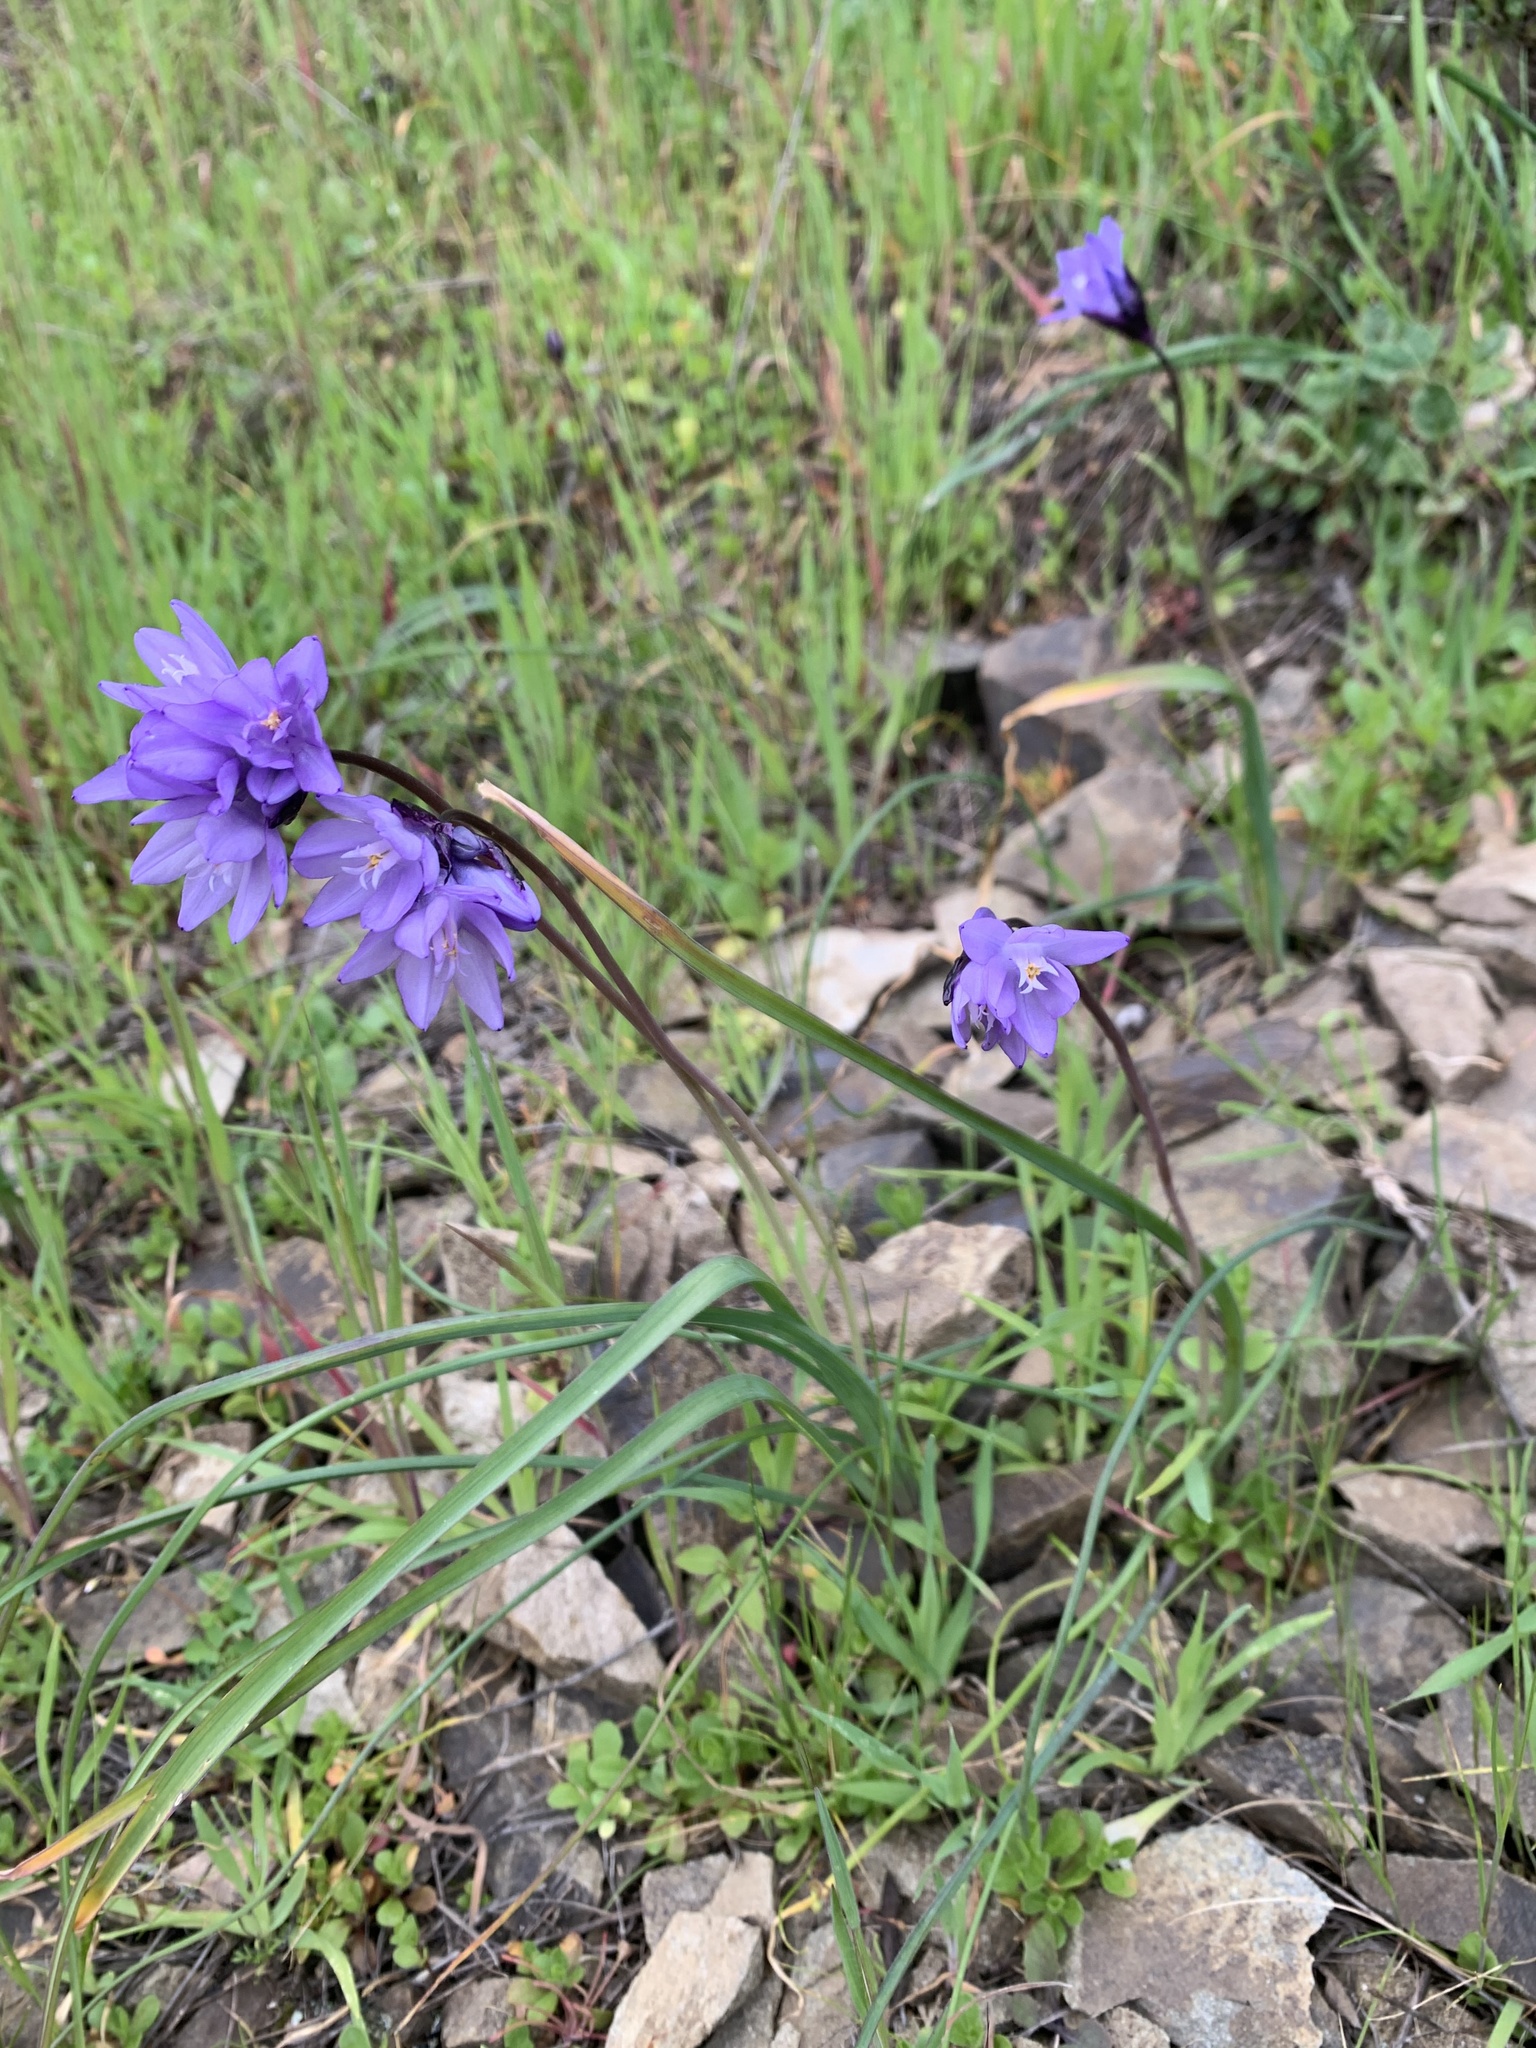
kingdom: Plantae
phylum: Tracheophyta
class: Liliopsida
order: Asparagales
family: Asparagaceae
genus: Dipterostemon
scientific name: Dipterostemon capitatus
